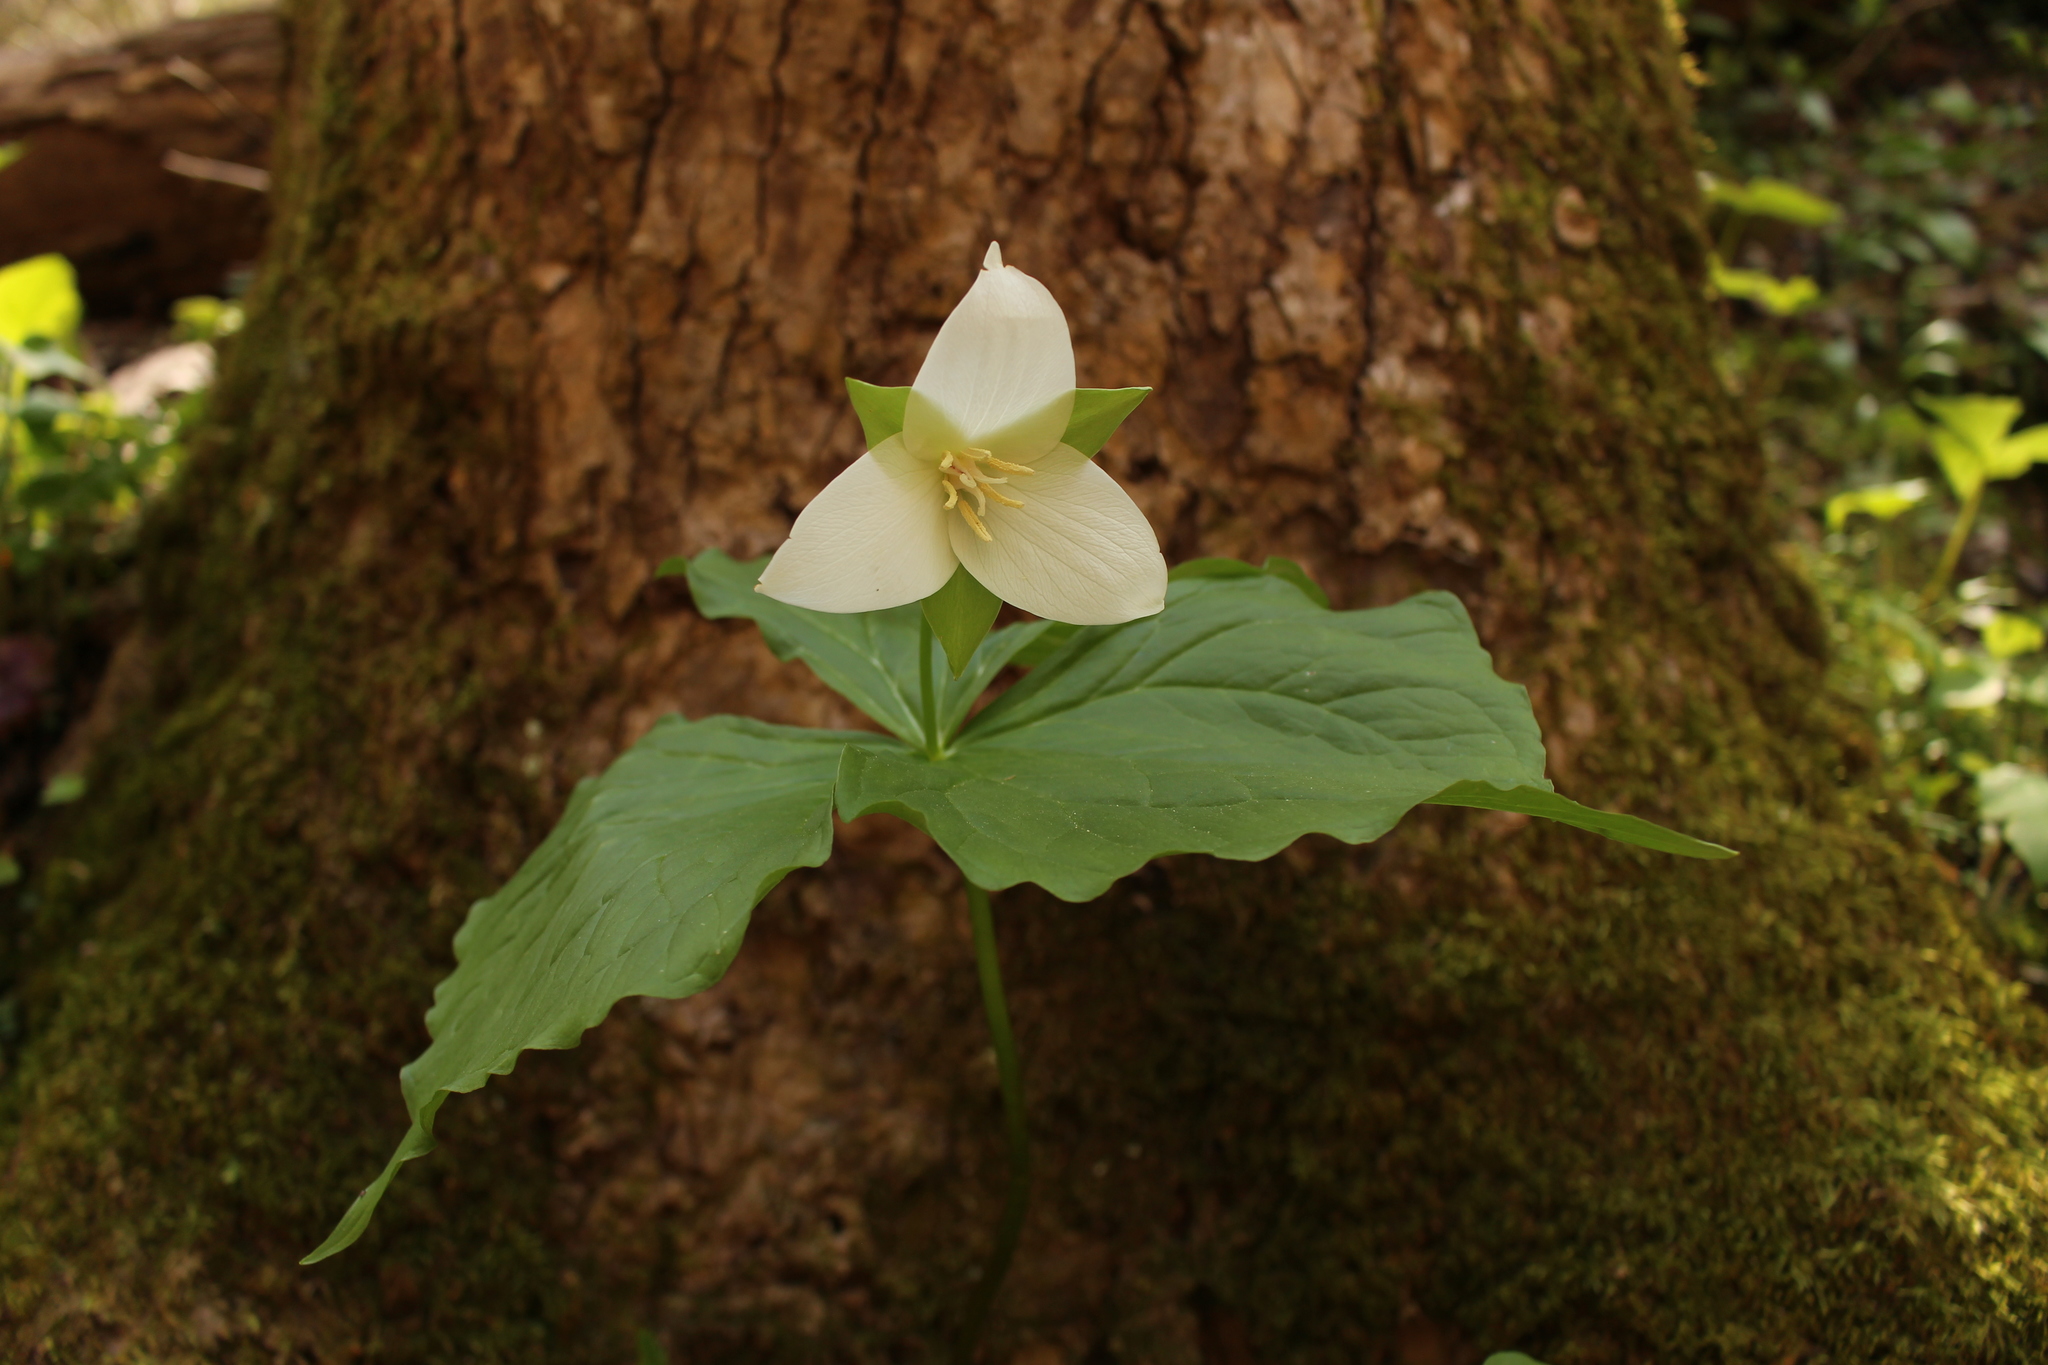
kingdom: Plantae
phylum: Tracheophyta
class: Liliopsida
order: Liliales
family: Melanthiaceae
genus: Trillium
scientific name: Trillium flexipes
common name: Drooping trillium
